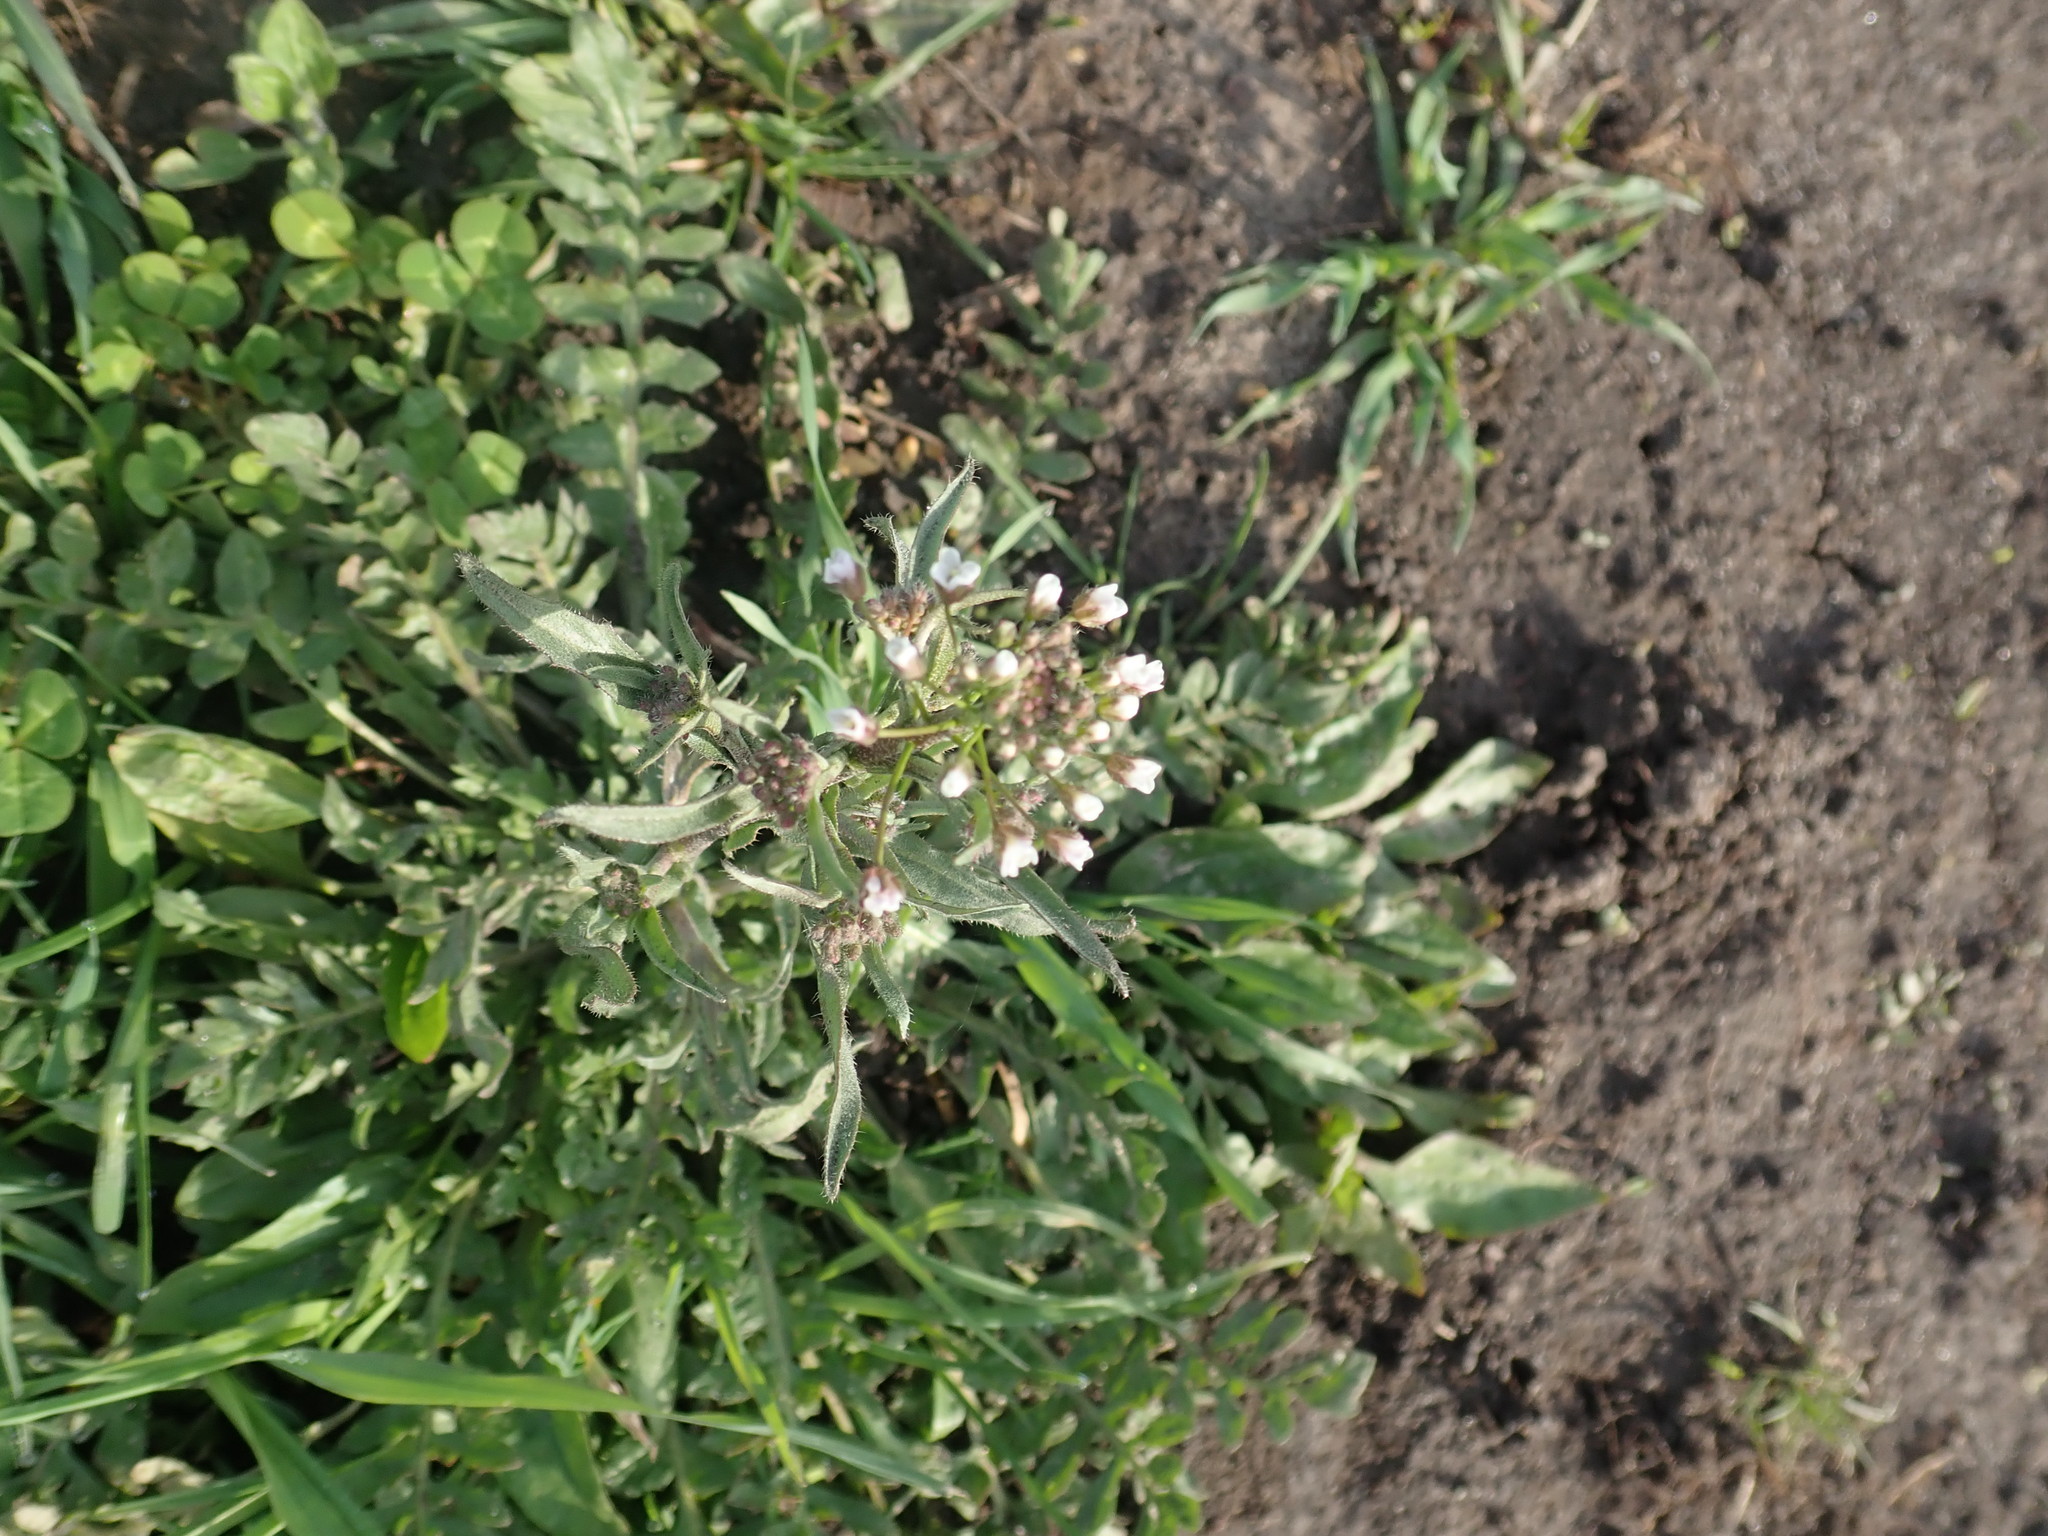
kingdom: Plantae
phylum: Tracheophyta
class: Magnoliopsida
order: Brassicales
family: Brassicaceae
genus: Capsella
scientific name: Capsella bursa-pastoris
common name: Shepherd's purse
